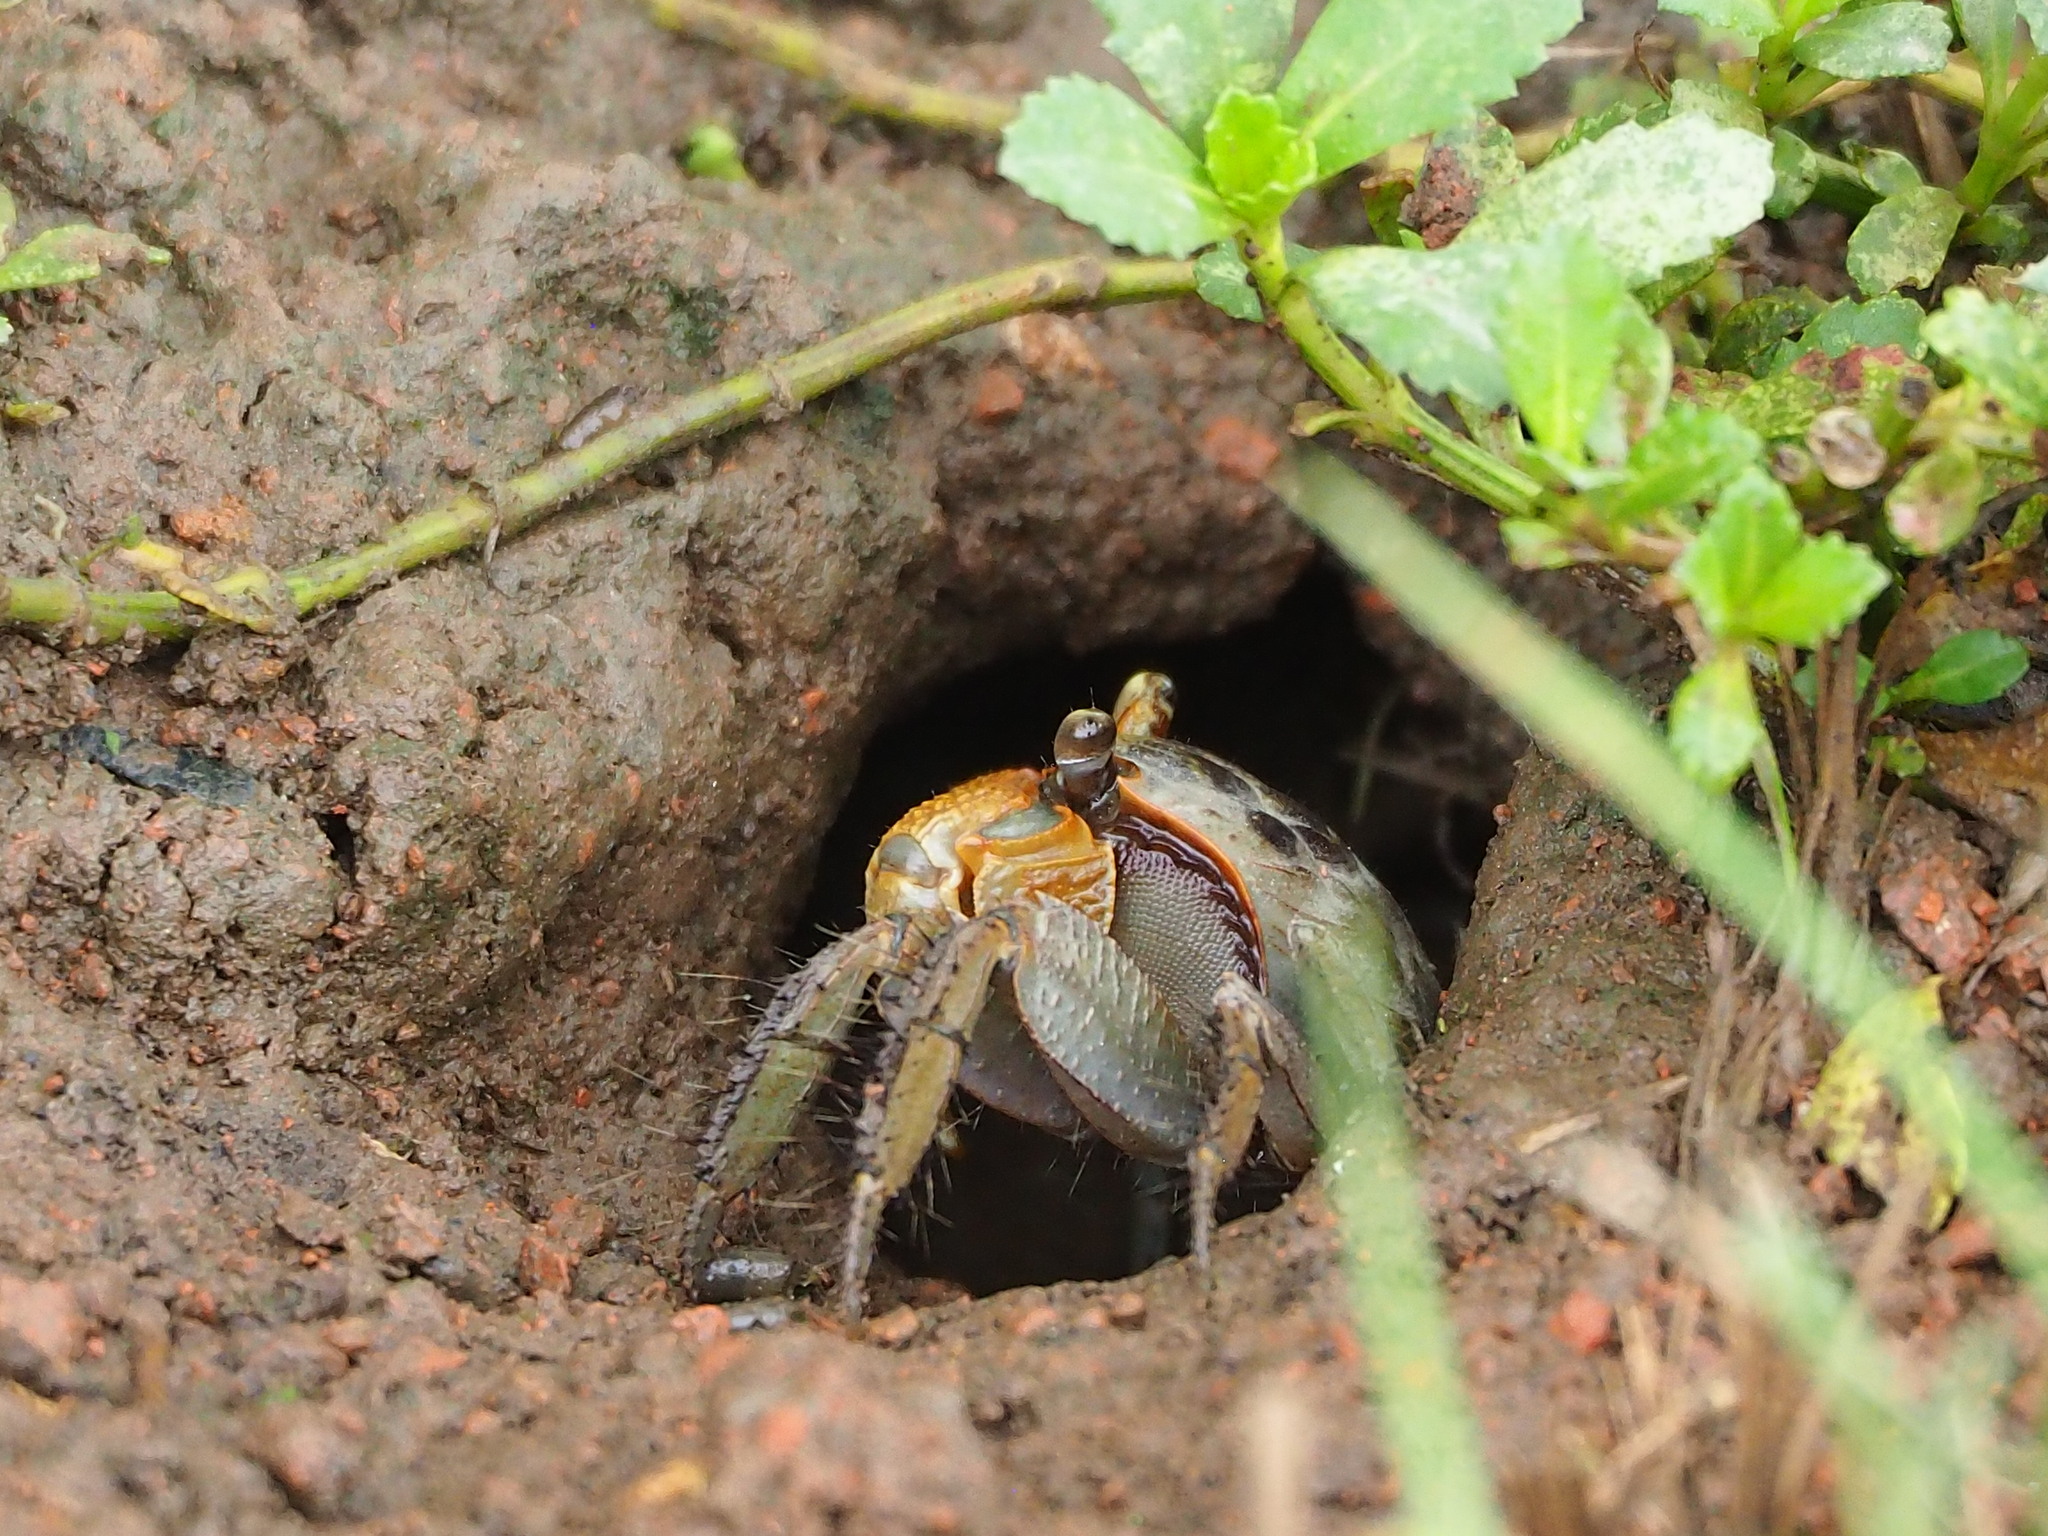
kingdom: Animalia
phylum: Arthropoda
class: Malacostraca
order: Decapoda
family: Sesarmidae
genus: Orisarma
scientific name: Orisarma dehaani
